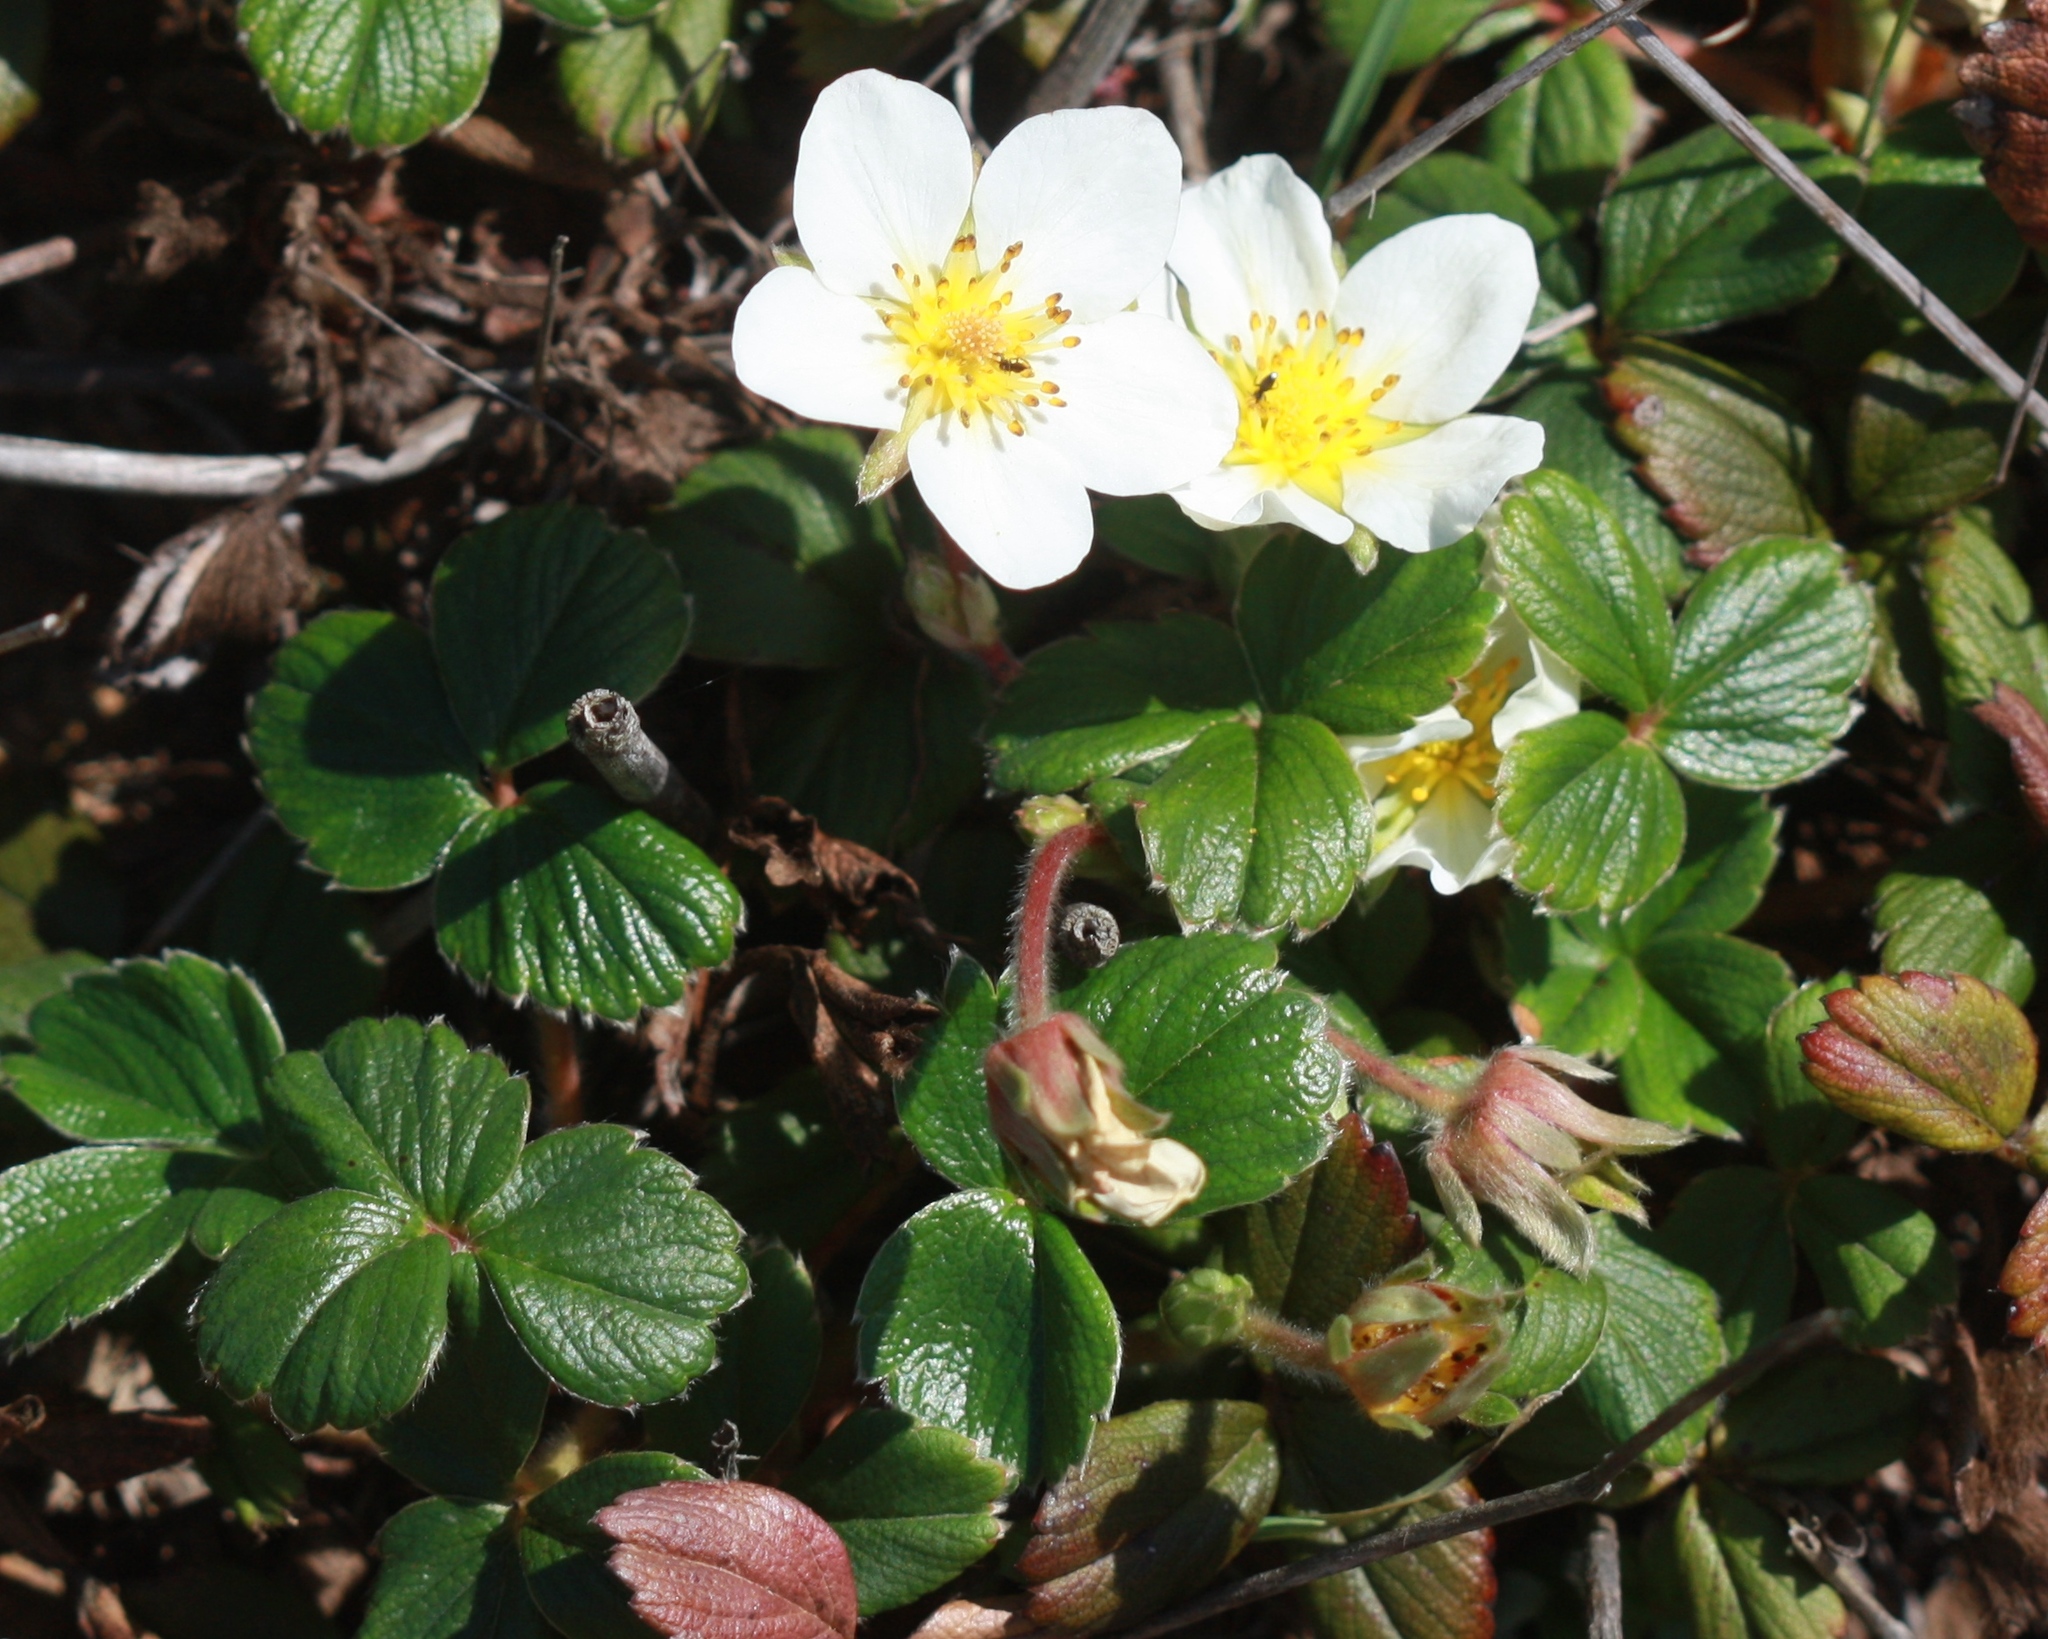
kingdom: Plantae
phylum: Tracheophyta
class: Magnoliopsida
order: Rosales
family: Rosaceae
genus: Fragaria
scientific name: Fragaria chiloensis
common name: Beach strawberry
